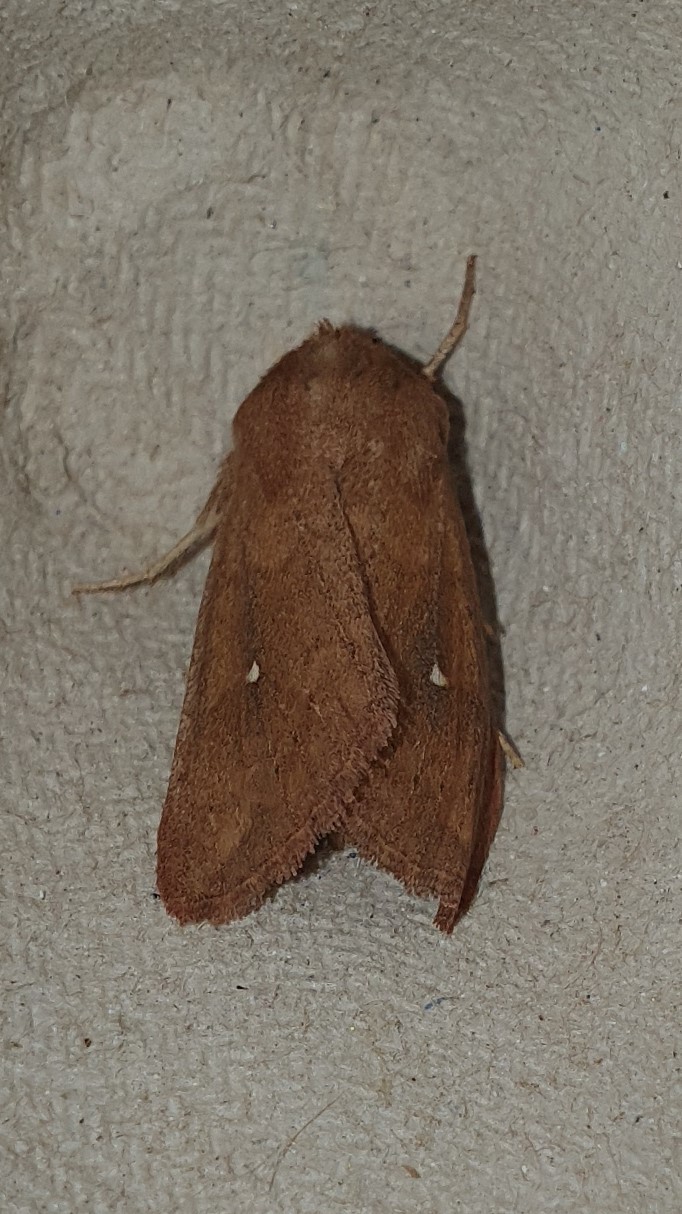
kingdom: Animalia
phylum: Arthropoda
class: Insecta
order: Lepidoptera
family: Noctuidae
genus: Mythimna
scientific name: Mythimna albipuncta
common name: White-point
